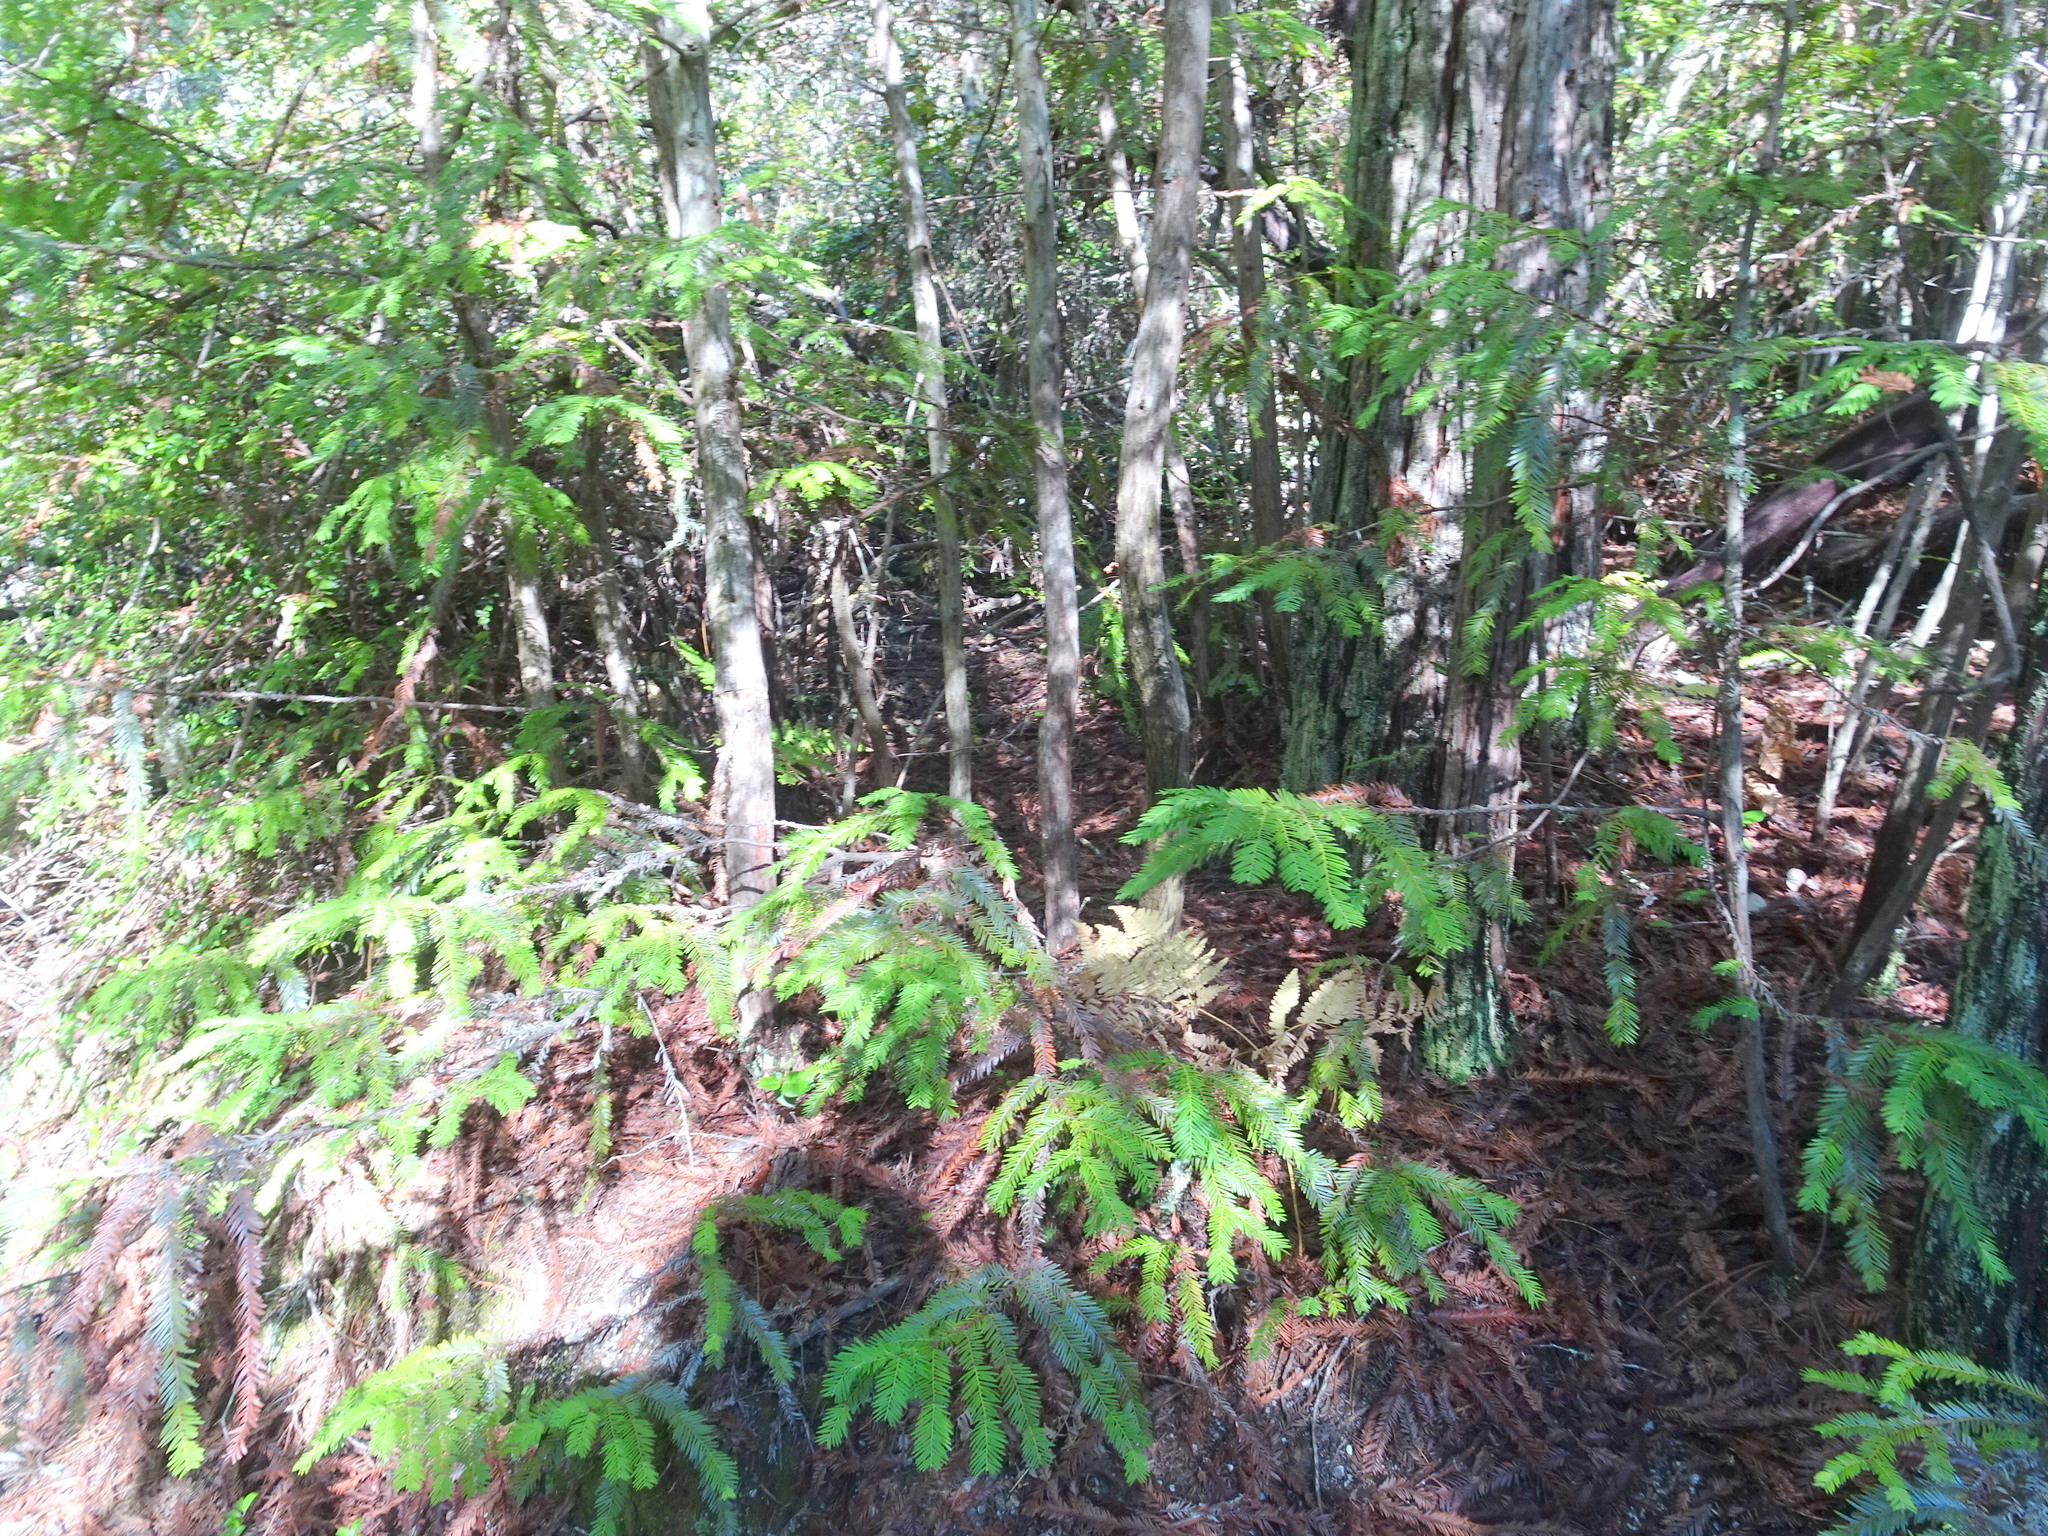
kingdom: Plantae
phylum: Tracheophyta
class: Pinopsida
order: Pinales
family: Cupressaceae
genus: Sequoia
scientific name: Sequoia sempervirens
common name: Coast redwood
